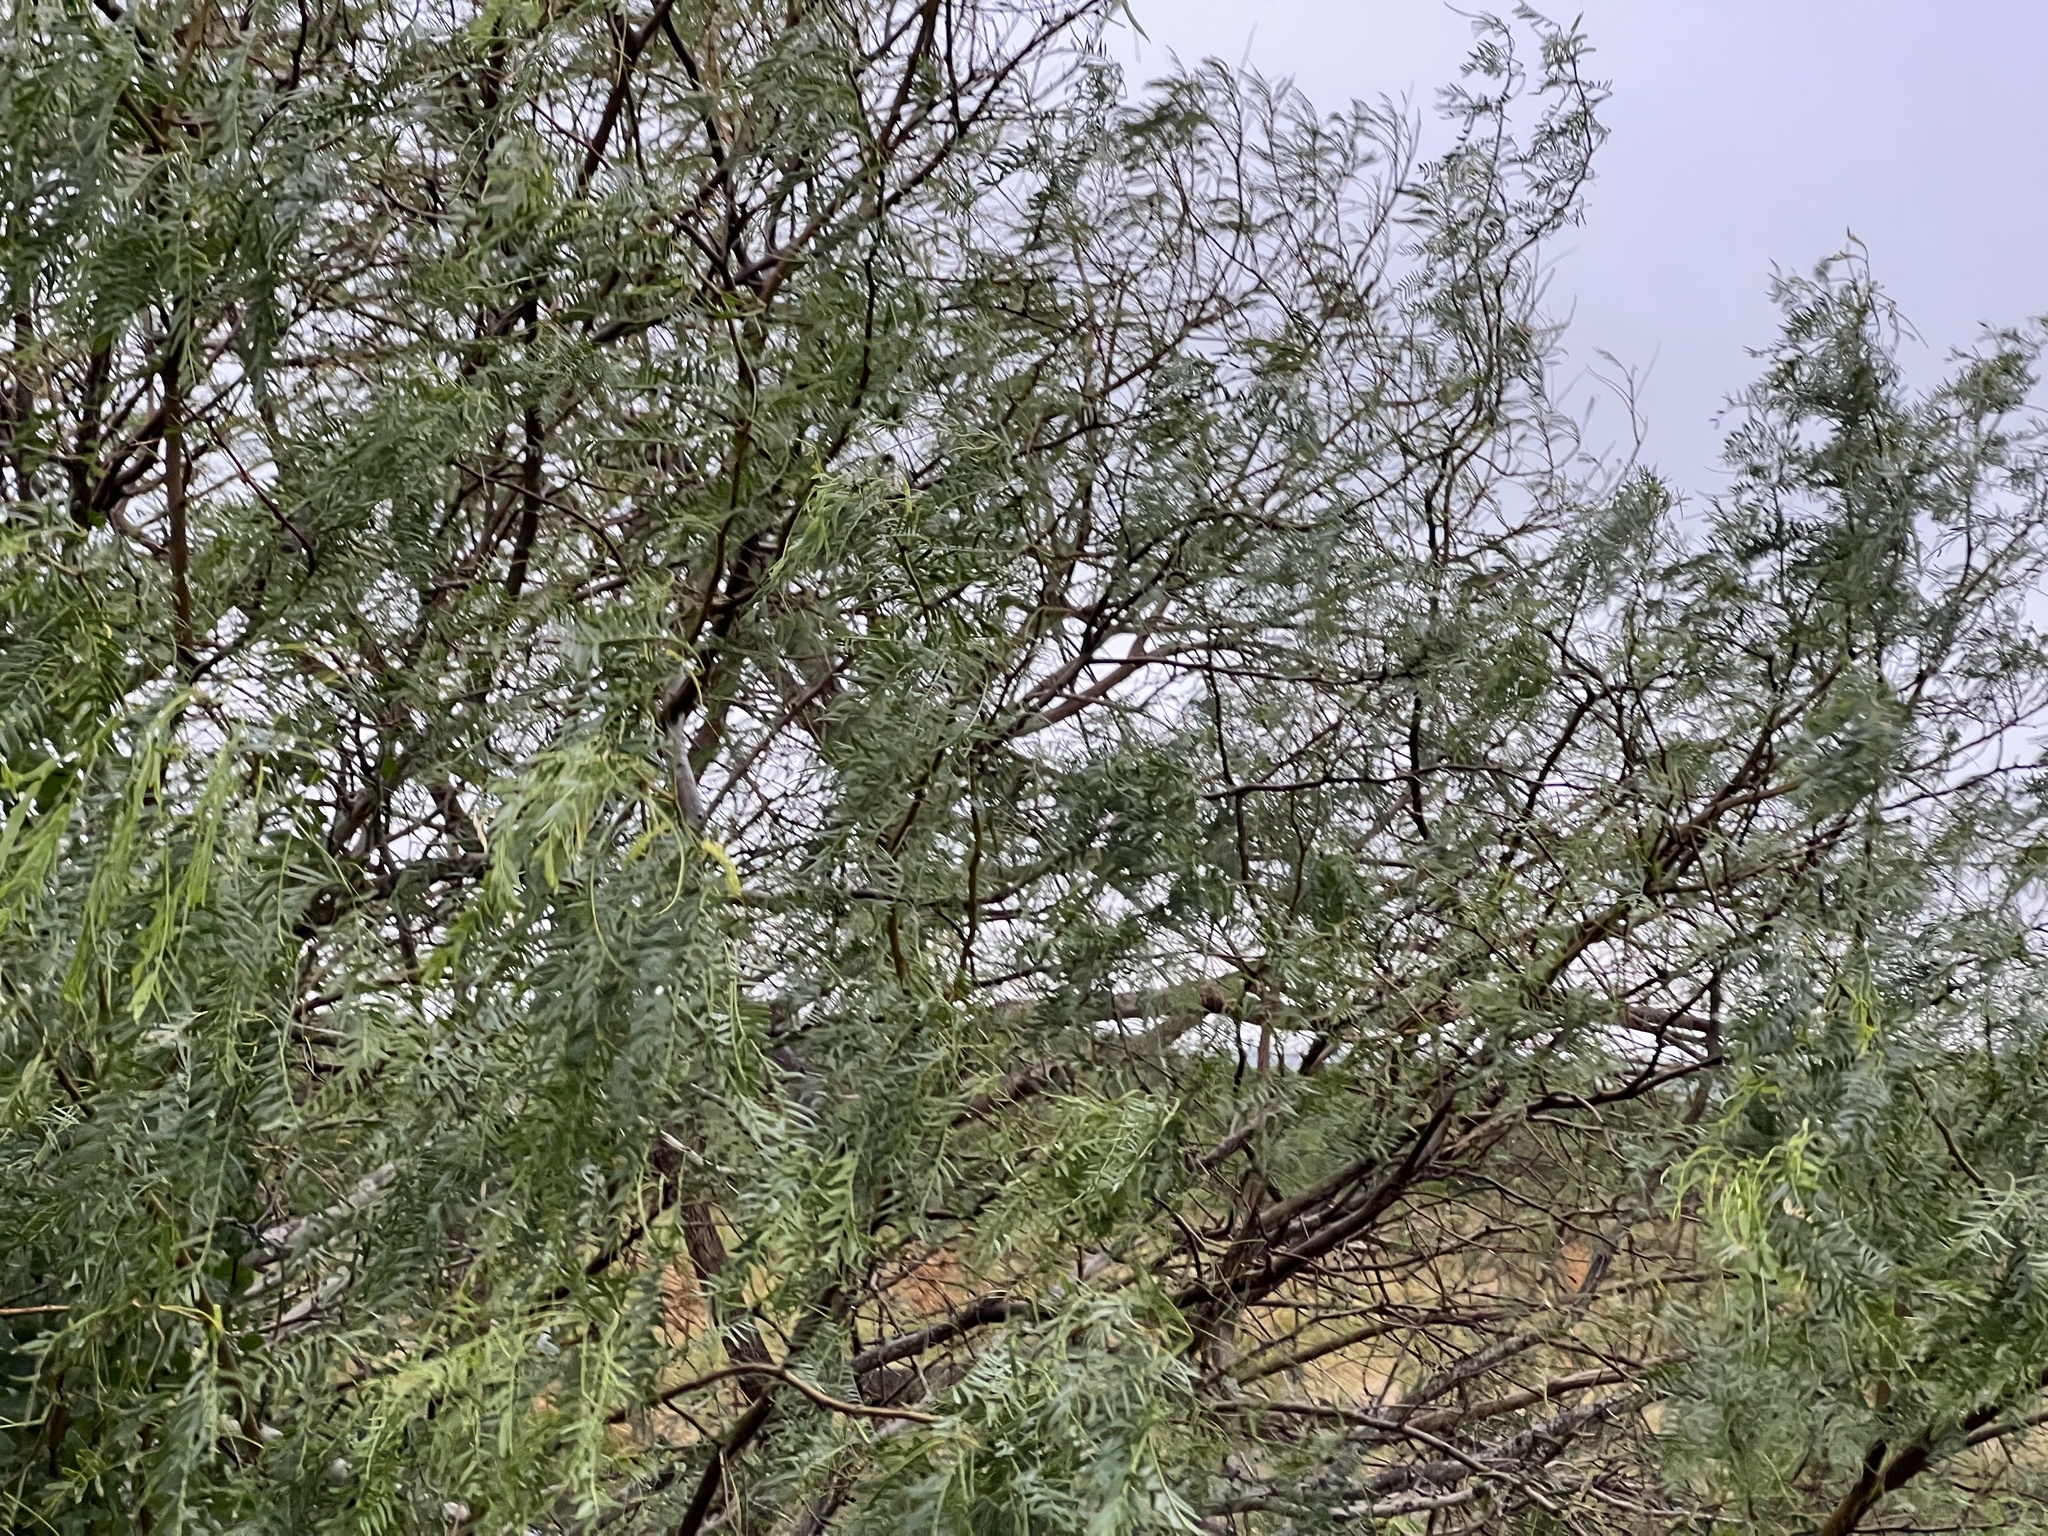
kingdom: Plantae
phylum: Tracheophyta
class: Magnoliopsida
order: Fabales
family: Fabaceae
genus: Prosopis
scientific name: Prosopis glandulosa
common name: Honey mesquite
